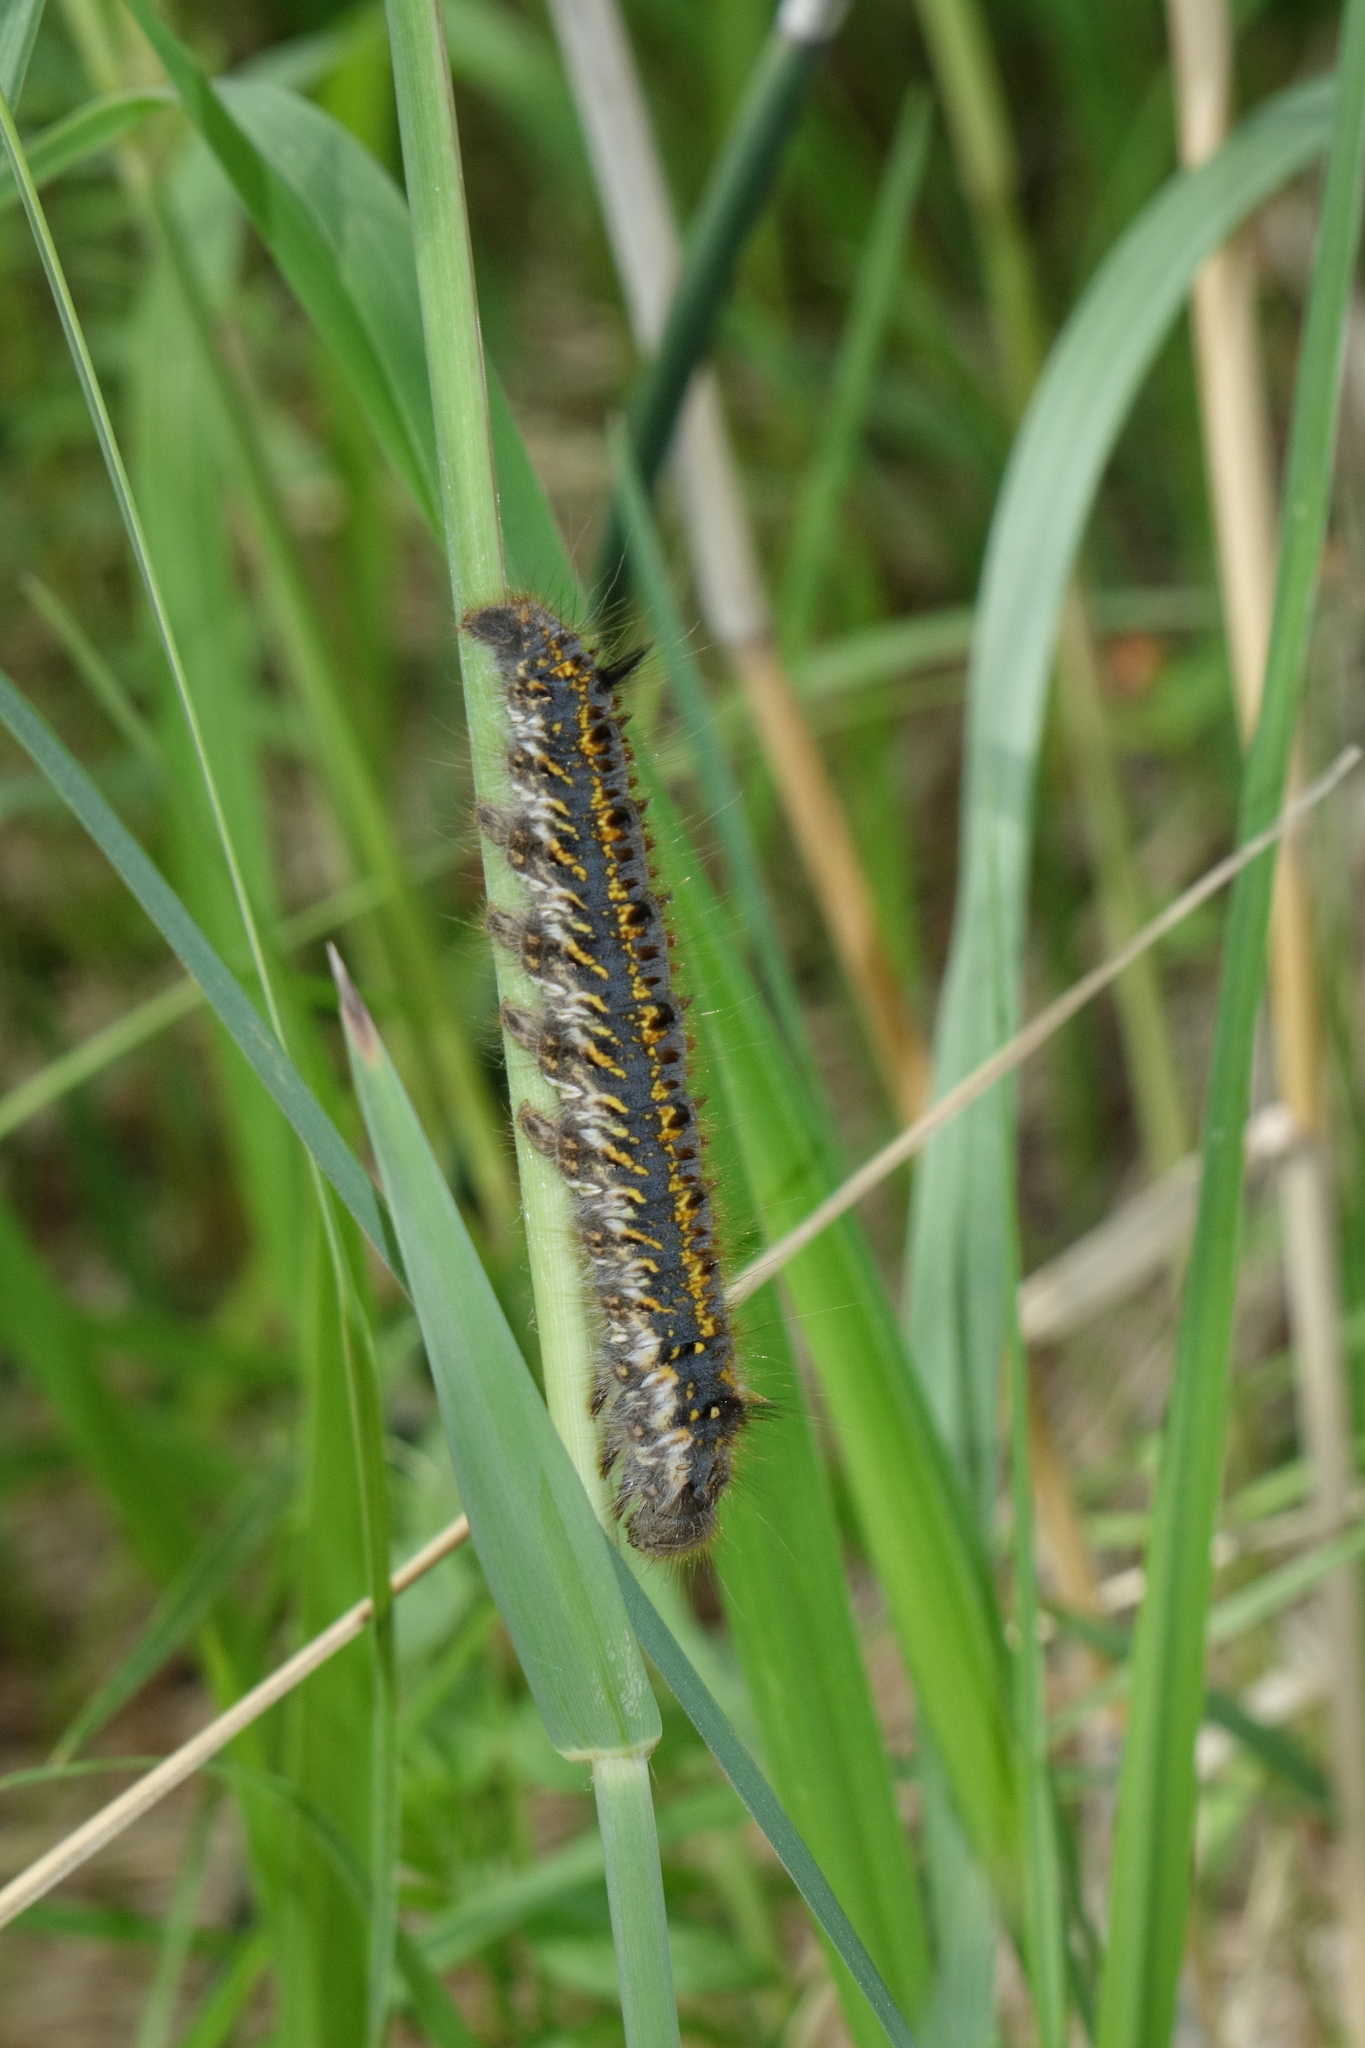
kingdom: Animalia
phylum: Arthropoda
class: Insecta
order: Lepidoptera
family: Lasiocampidae
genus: Euthrix
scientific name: Euthrix potatoria
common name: Drinker
